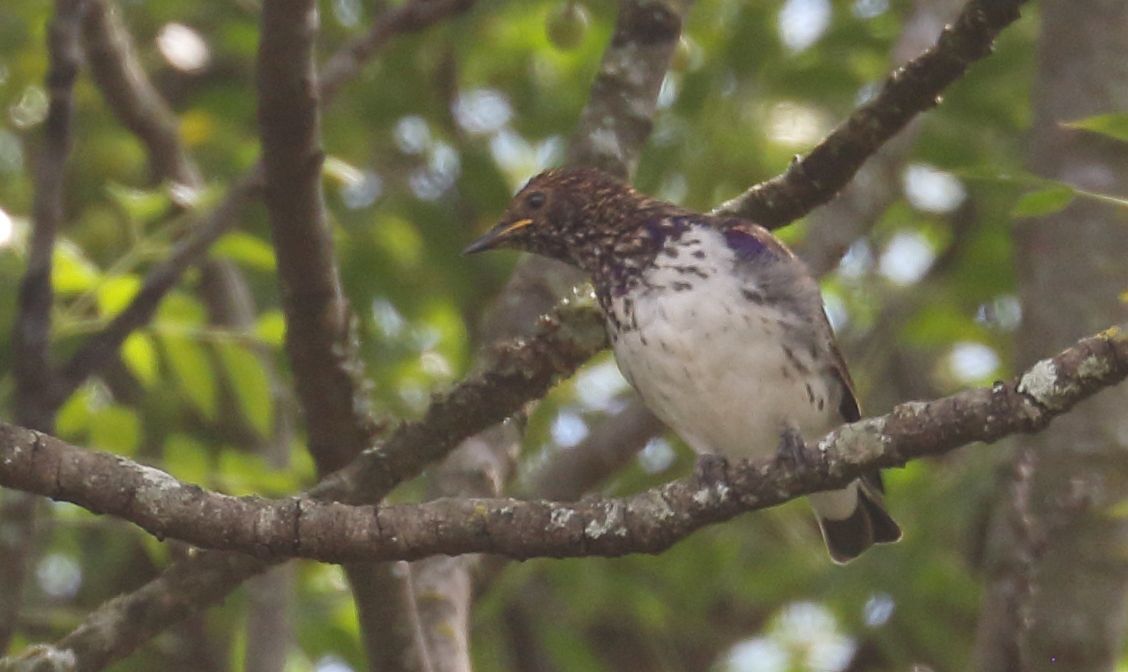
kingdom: Animalia
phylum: Chordata
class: Aves
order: Passeriformes
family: Sturnidae
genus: Cinnyricinclus
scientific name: Cinnyricinclus leucogaster
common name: Violet-backed starling
